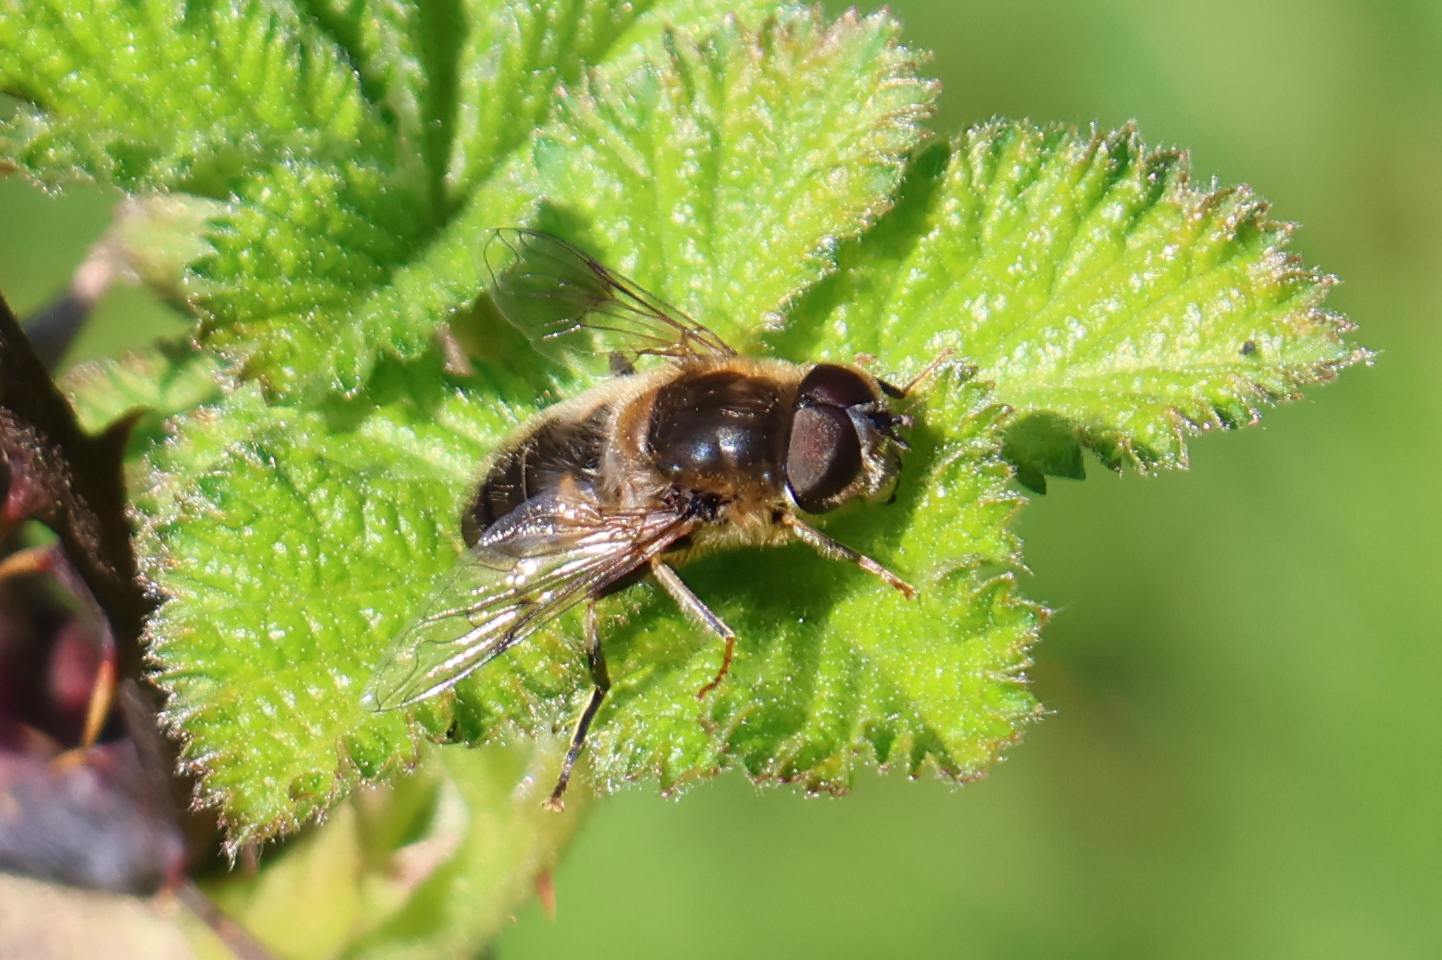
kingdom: Animalia
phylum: Arthropoda
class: Insecta
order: Diptera
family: Syrphidae
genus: Eristalis
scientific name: Eristalis pertinax
